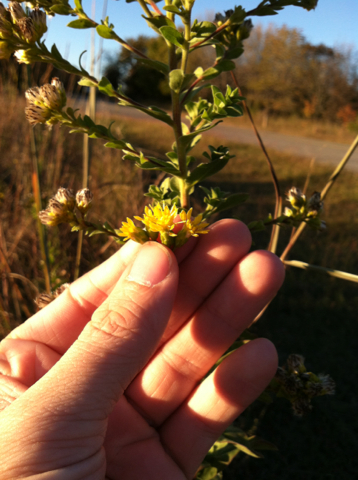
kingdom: Plantae
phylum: Tracheophyta
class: Magnoliopsida
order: Asterales
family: Asteraceae
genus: Solidago
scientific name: Solidago rigida
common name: Rigid goldenrod
